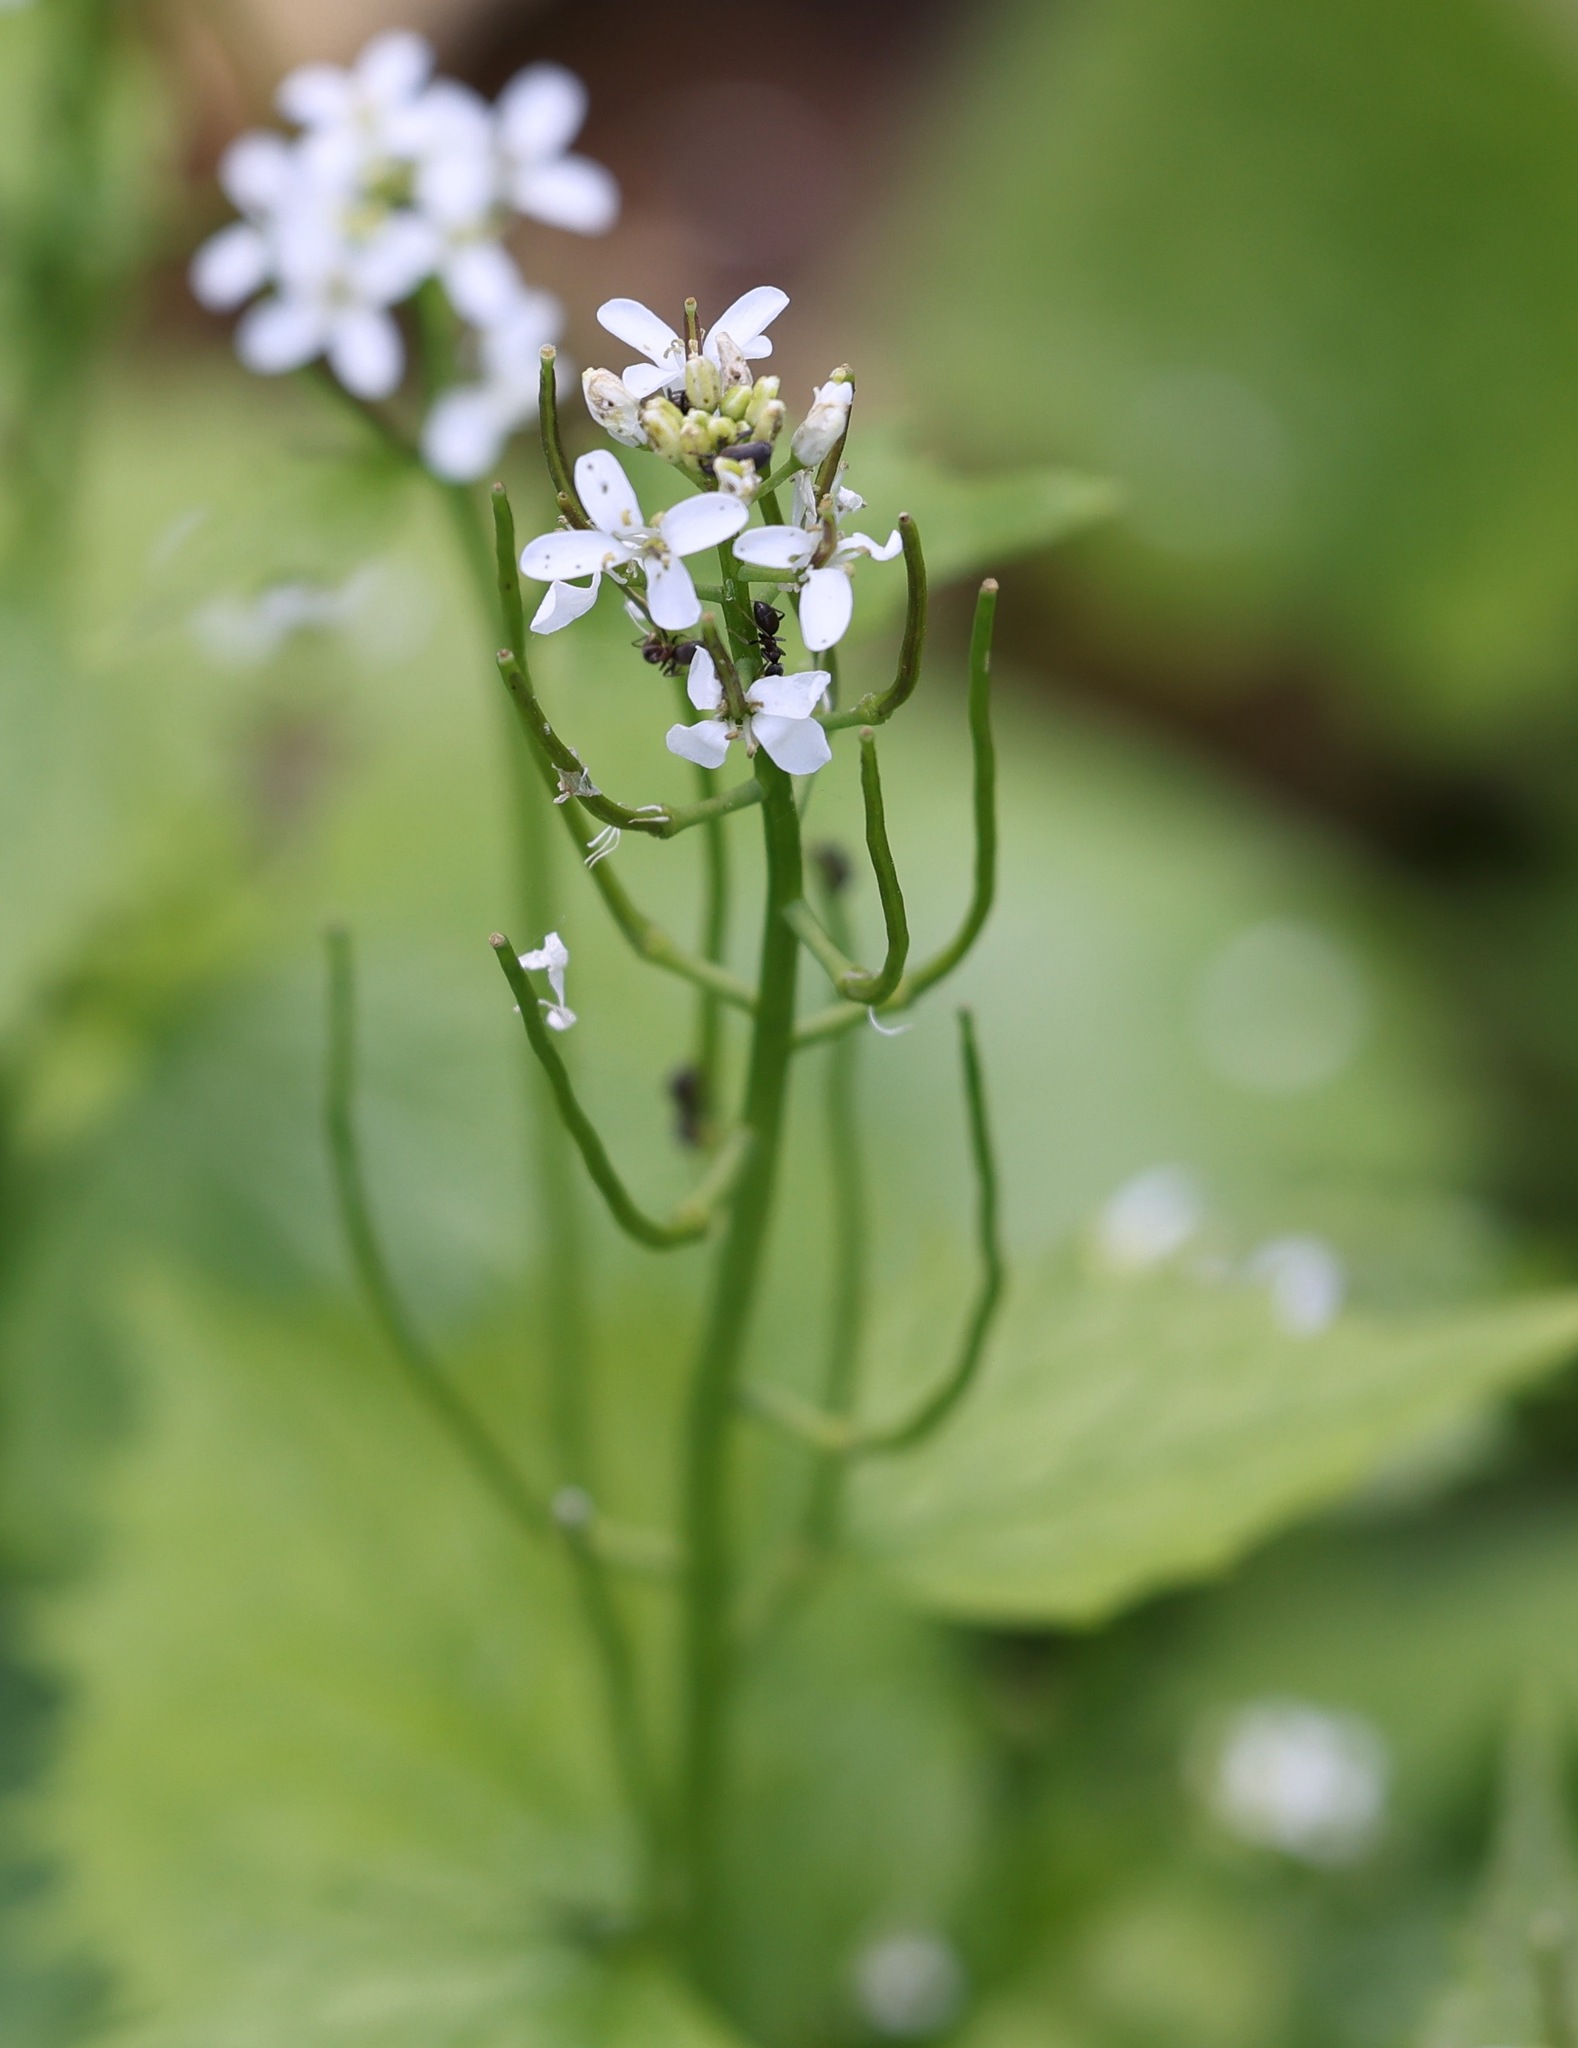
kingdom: Plantae
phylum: Tracheophyta
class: Magnoliopsida
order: Brassicales
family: Brassicaceae
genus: Alliaria
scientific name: Alliaria petiolata
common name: Garlic mustard
